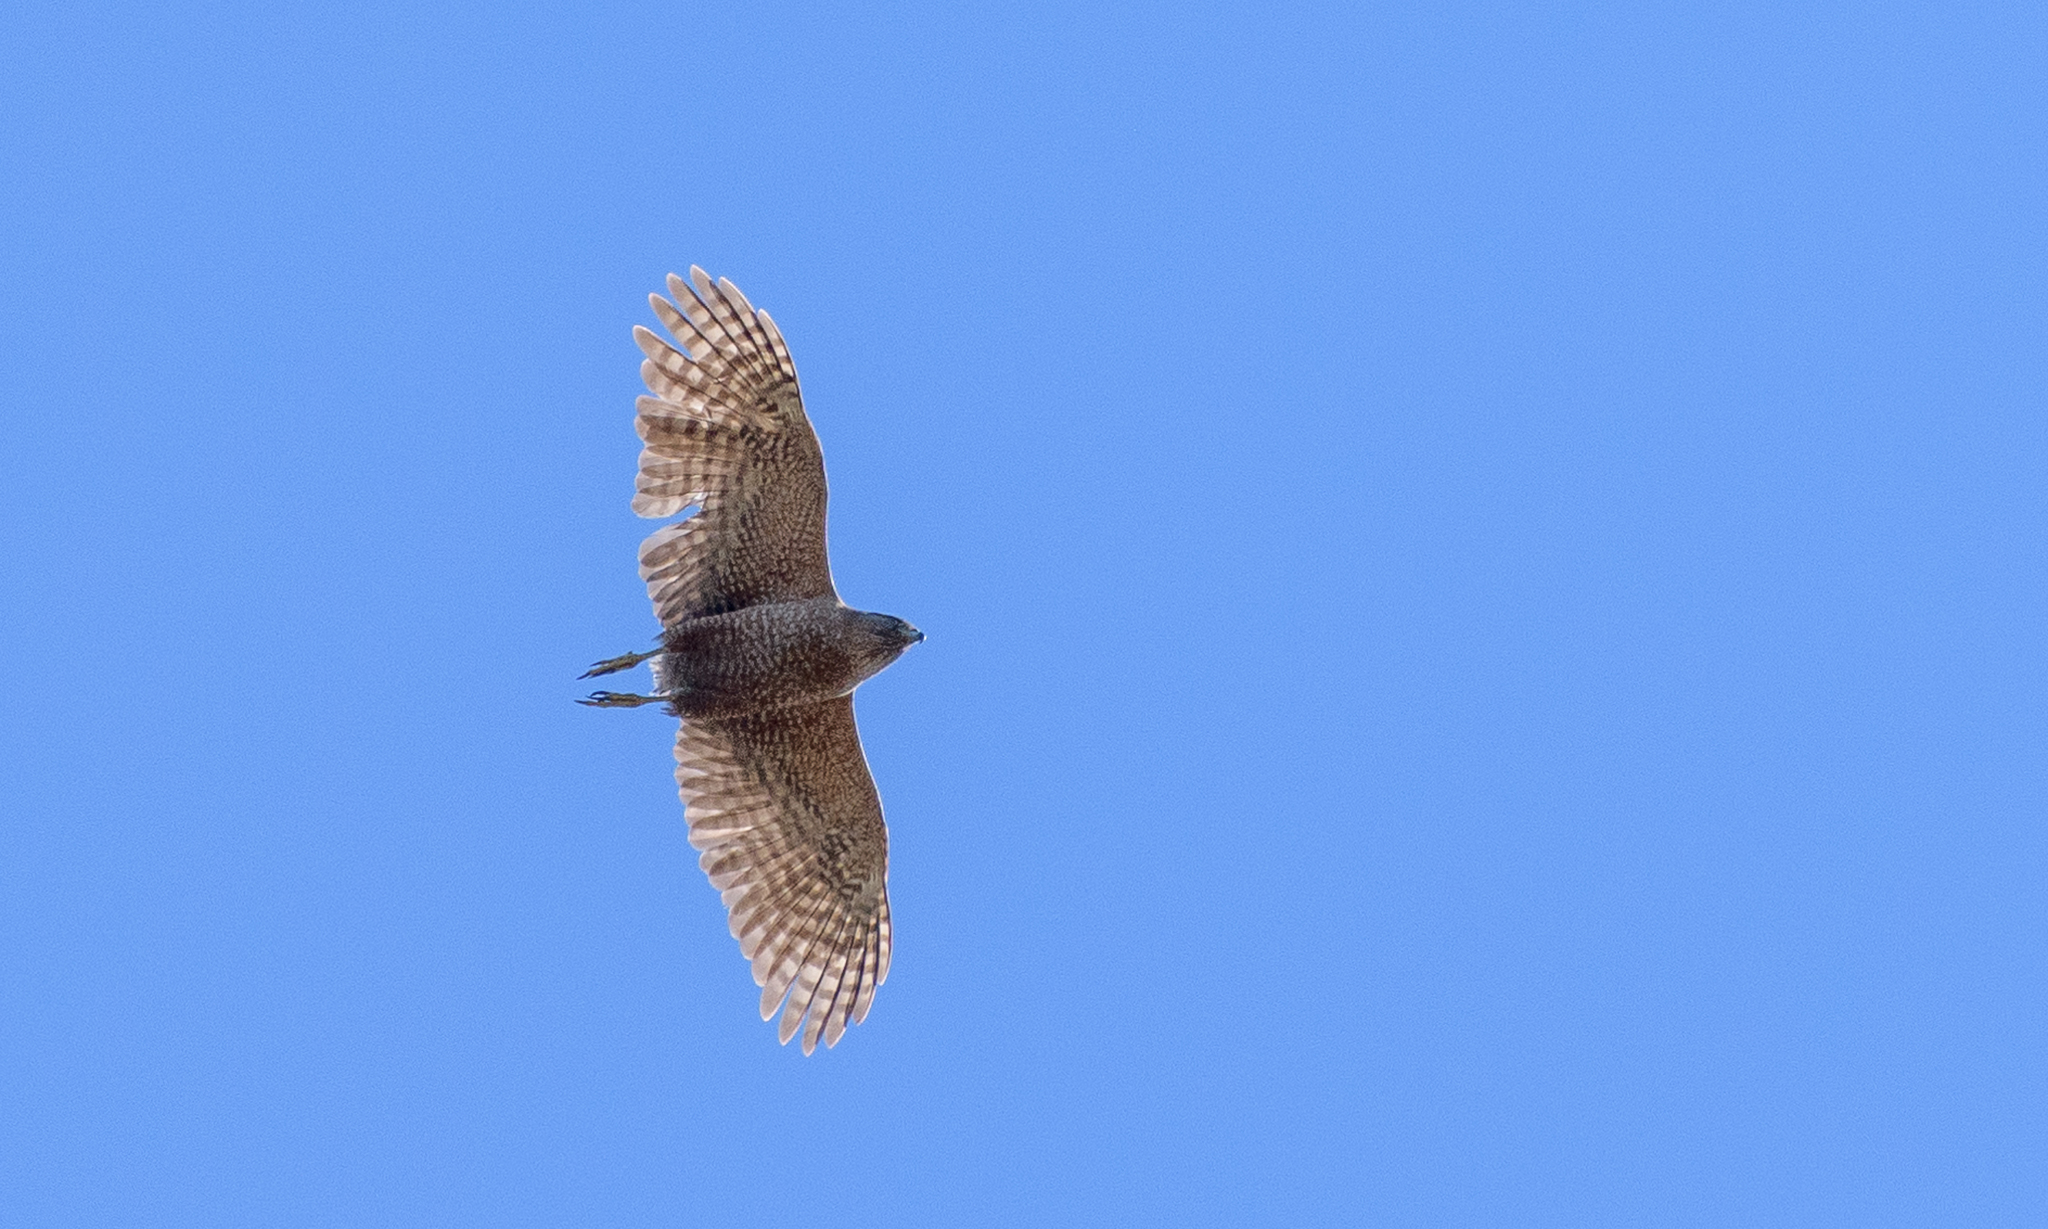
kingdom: Animalia
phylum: Chordata
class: Aves
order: Accipitriformes
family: Accipitridae
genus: Accipiter
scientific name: Accipiter cooperii
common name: Cooper's hawk
